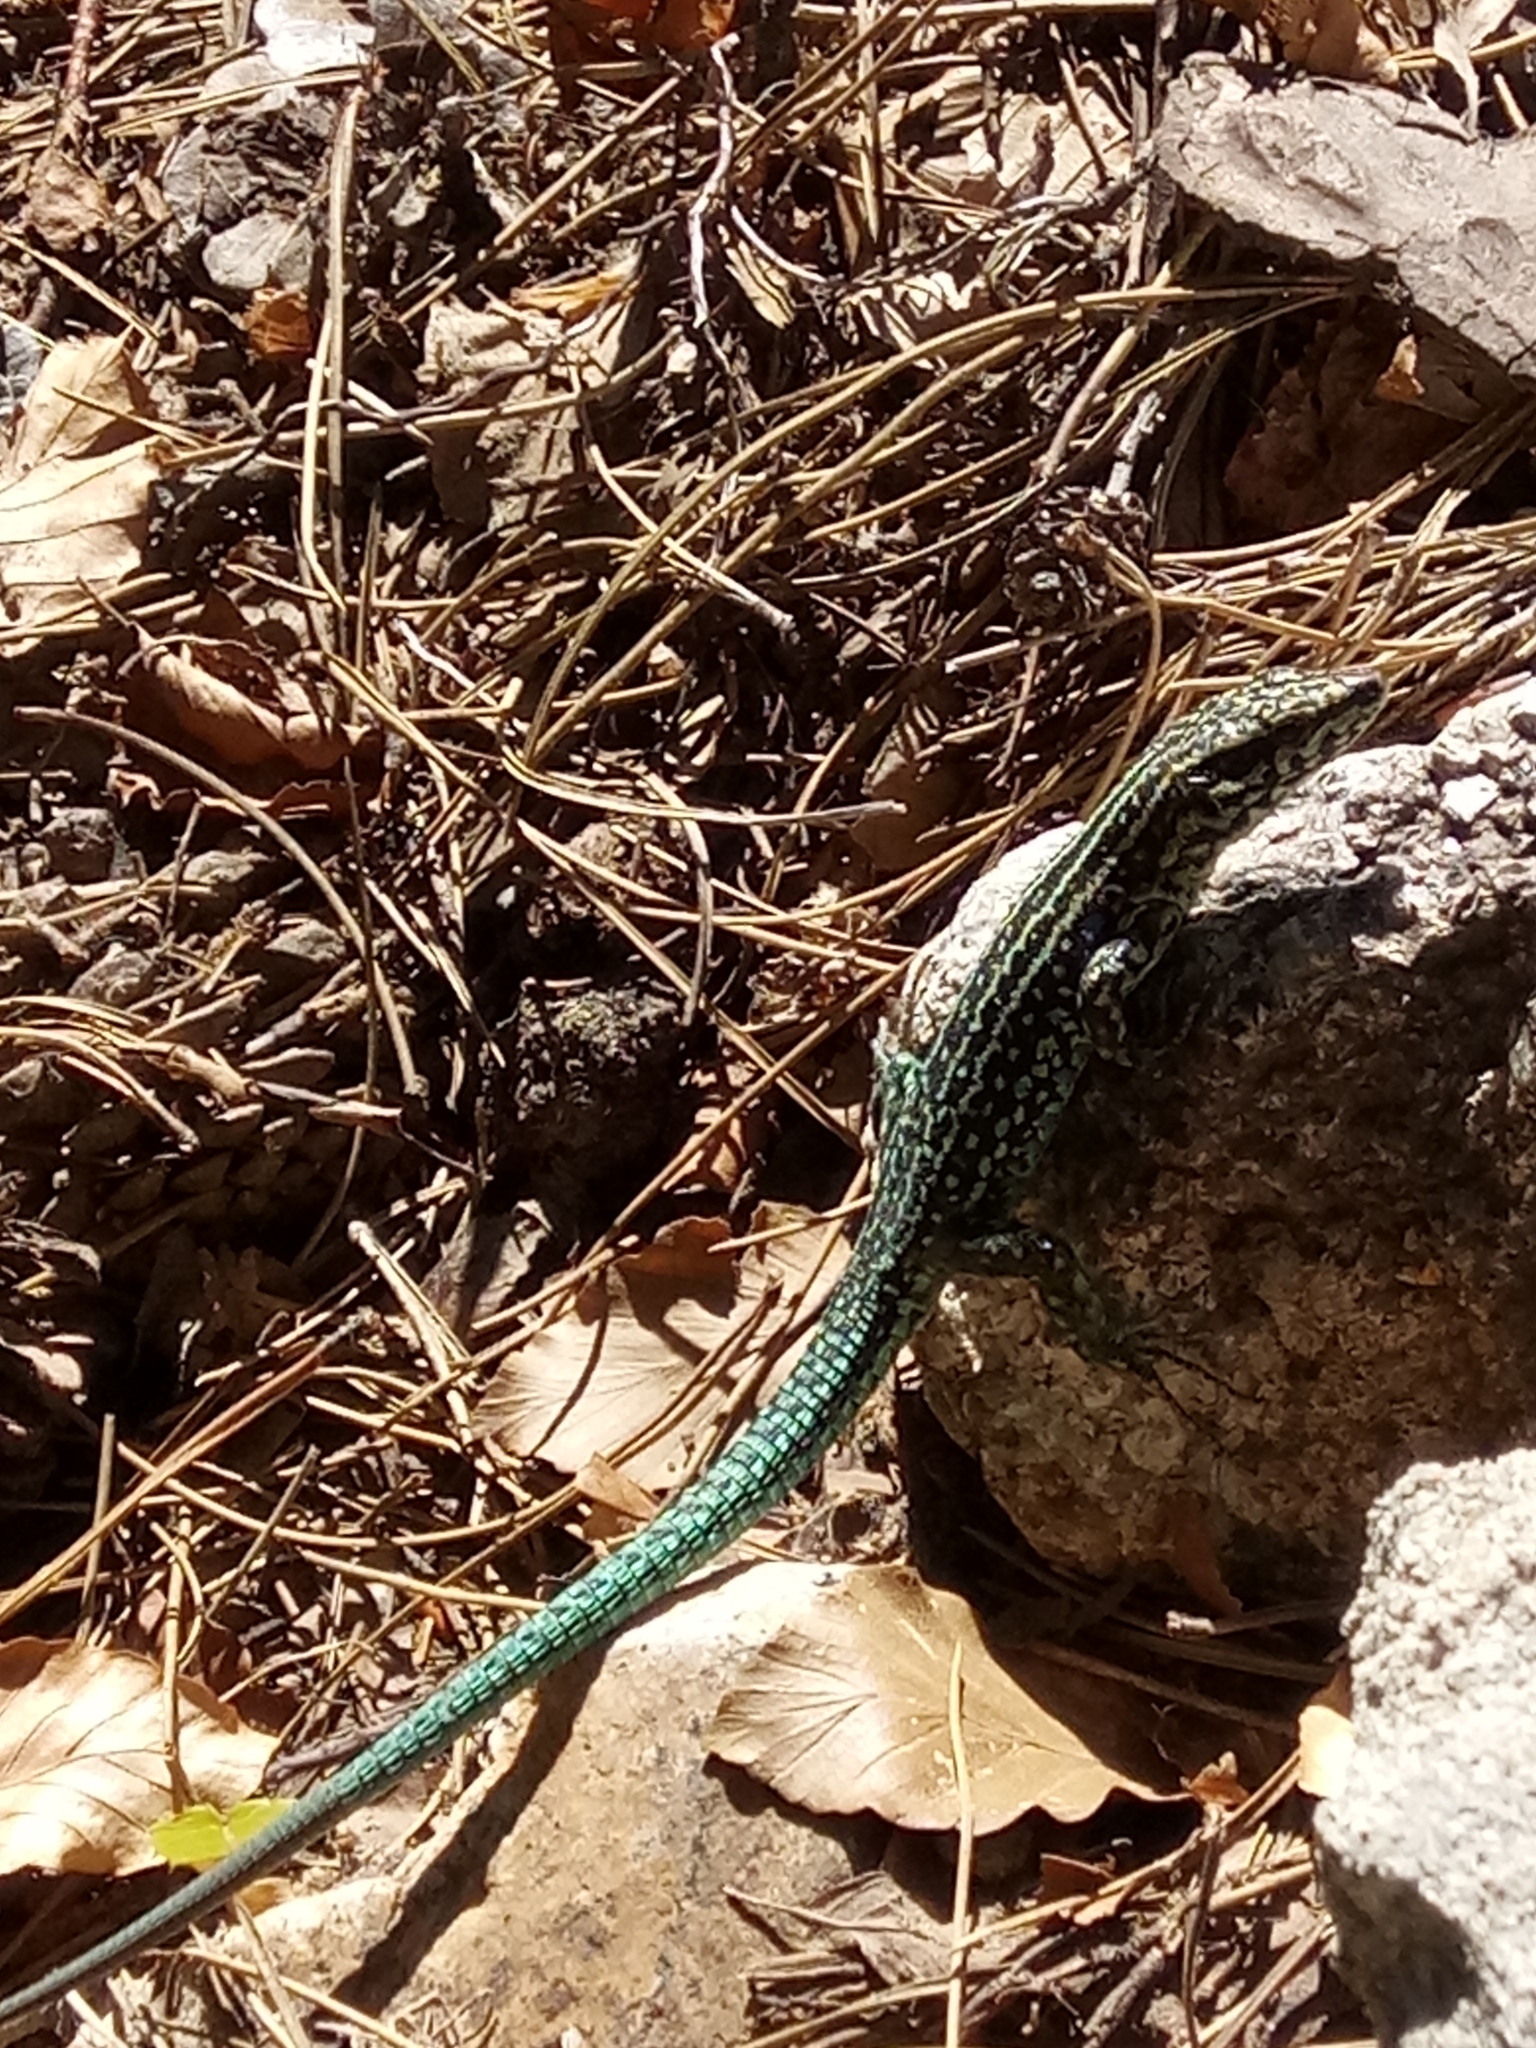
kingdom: Animalia
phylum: Chordata
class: Squamata
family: Lacertidae
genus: Podarcis
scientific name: Podarcis tiliguerta
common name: Tyrrhenian wall lizard
